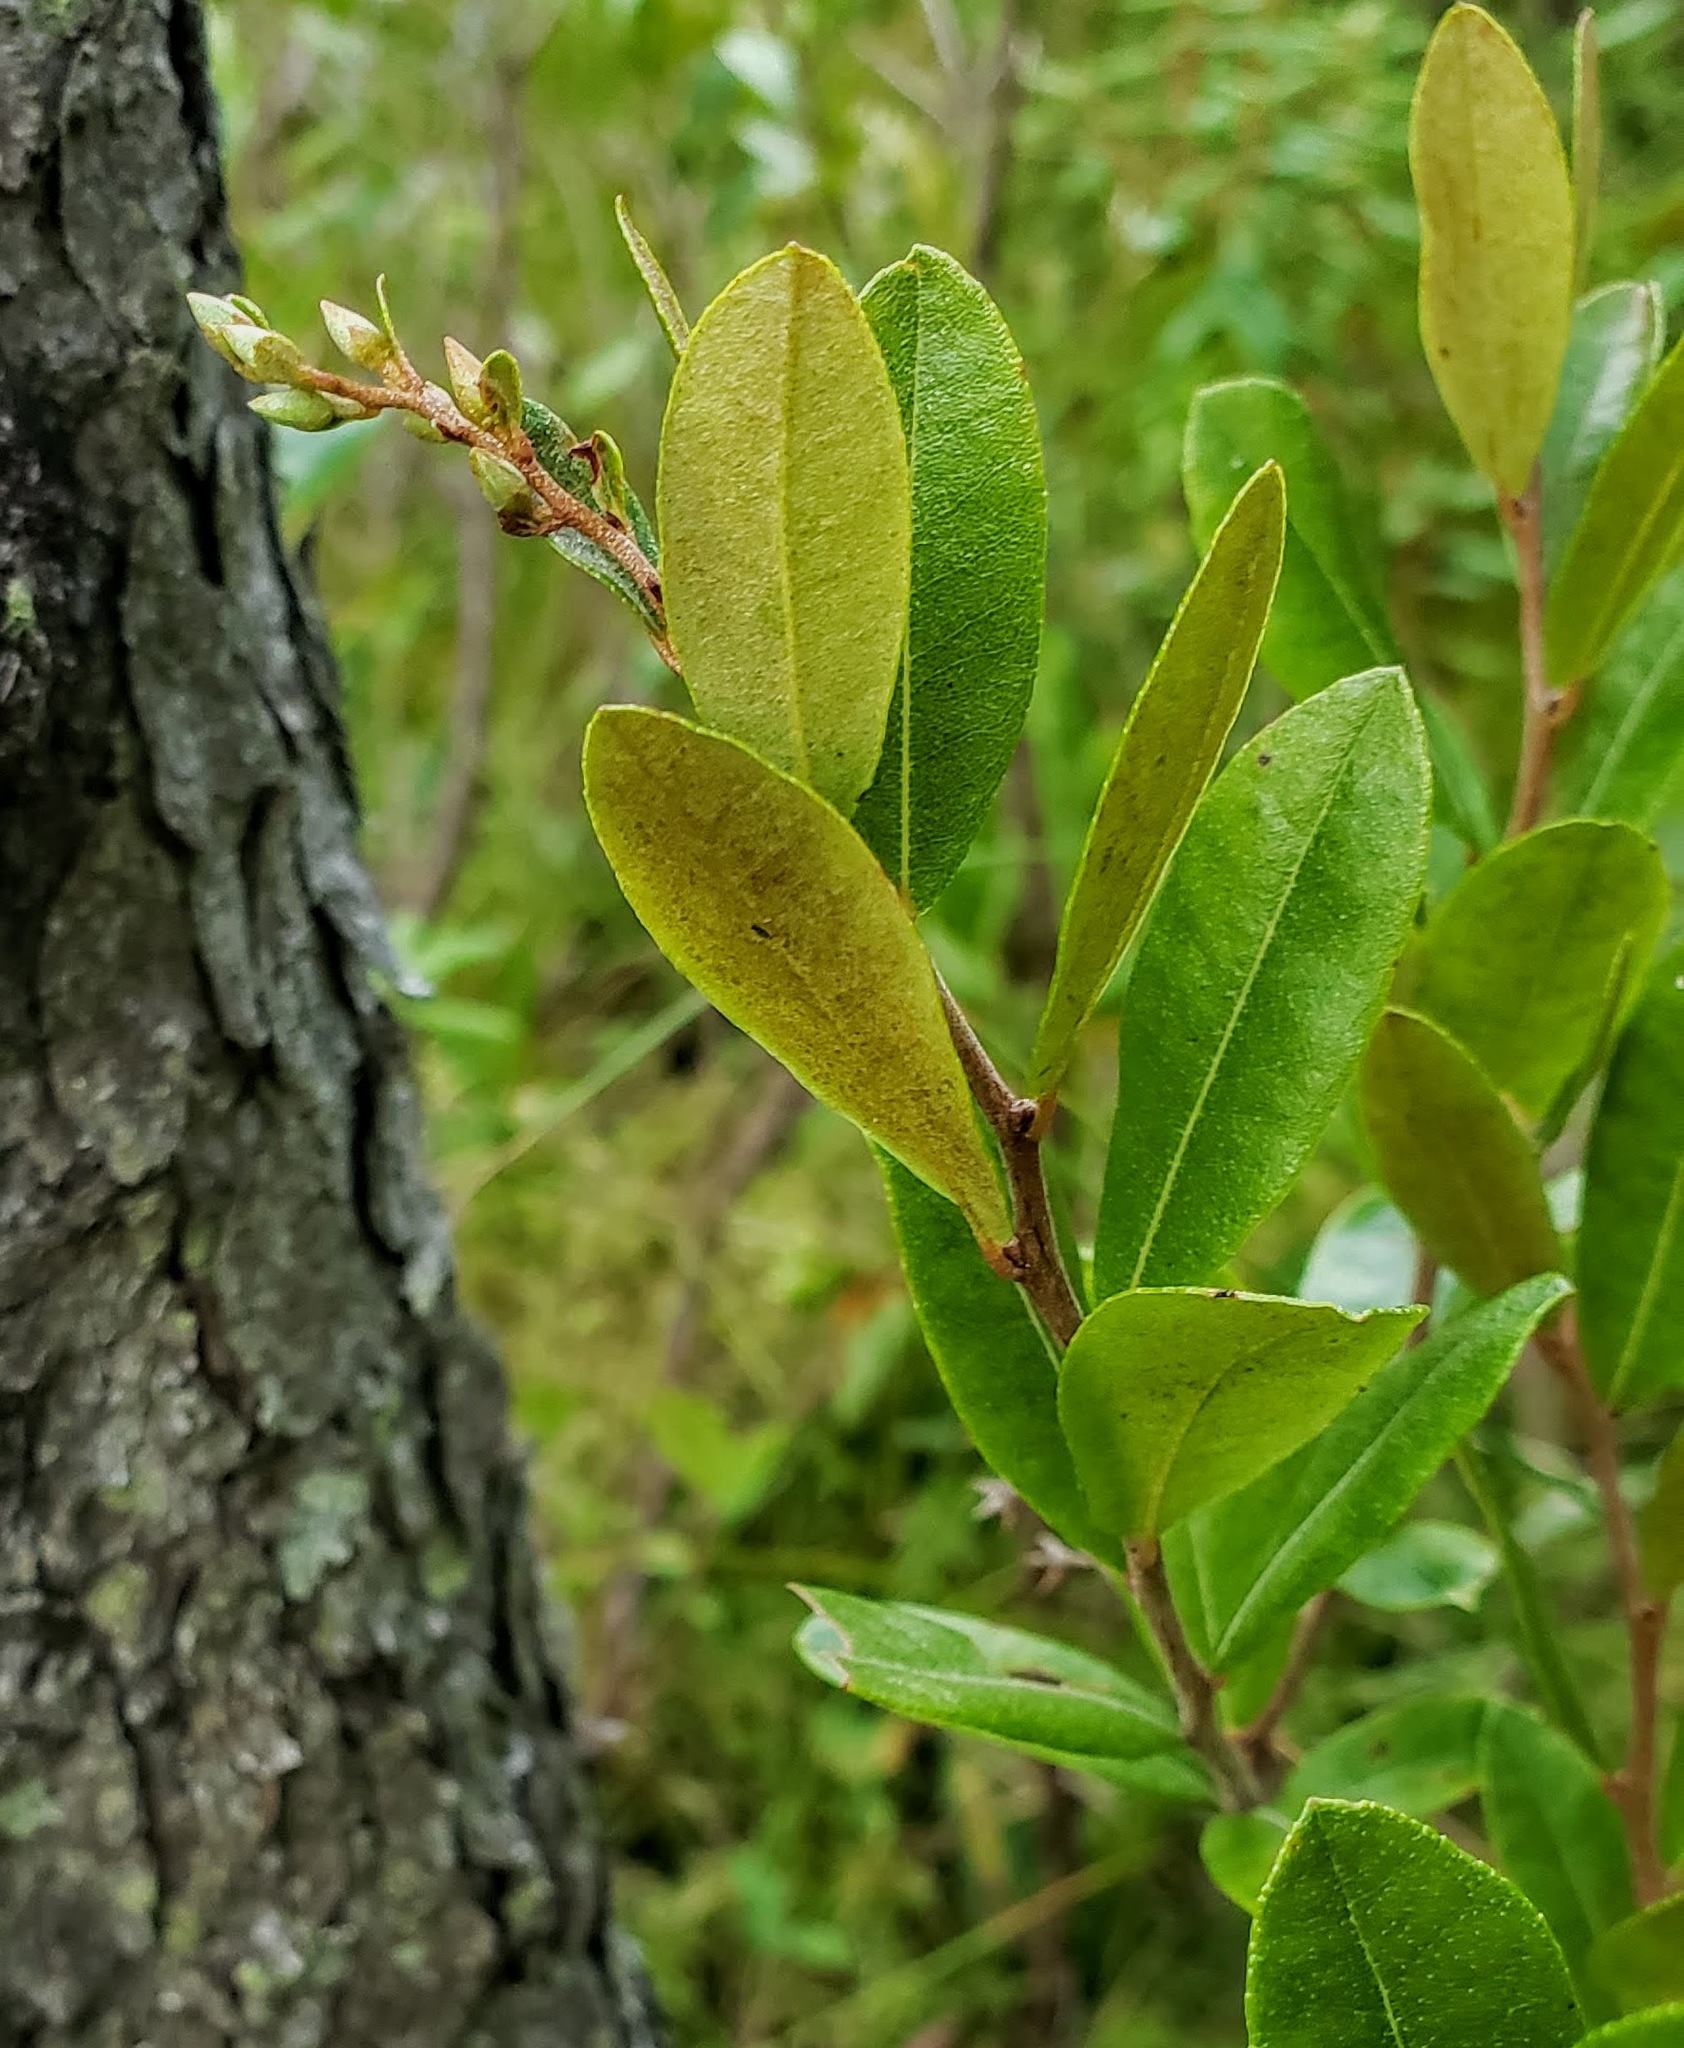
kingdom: Plantae
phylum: Tracheophyta
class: Magnoliopsida
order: Ericales
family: Ericaceae
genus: Chamaedaphne
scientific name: Chamaedaphne calyculata
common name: Leatherleaf
